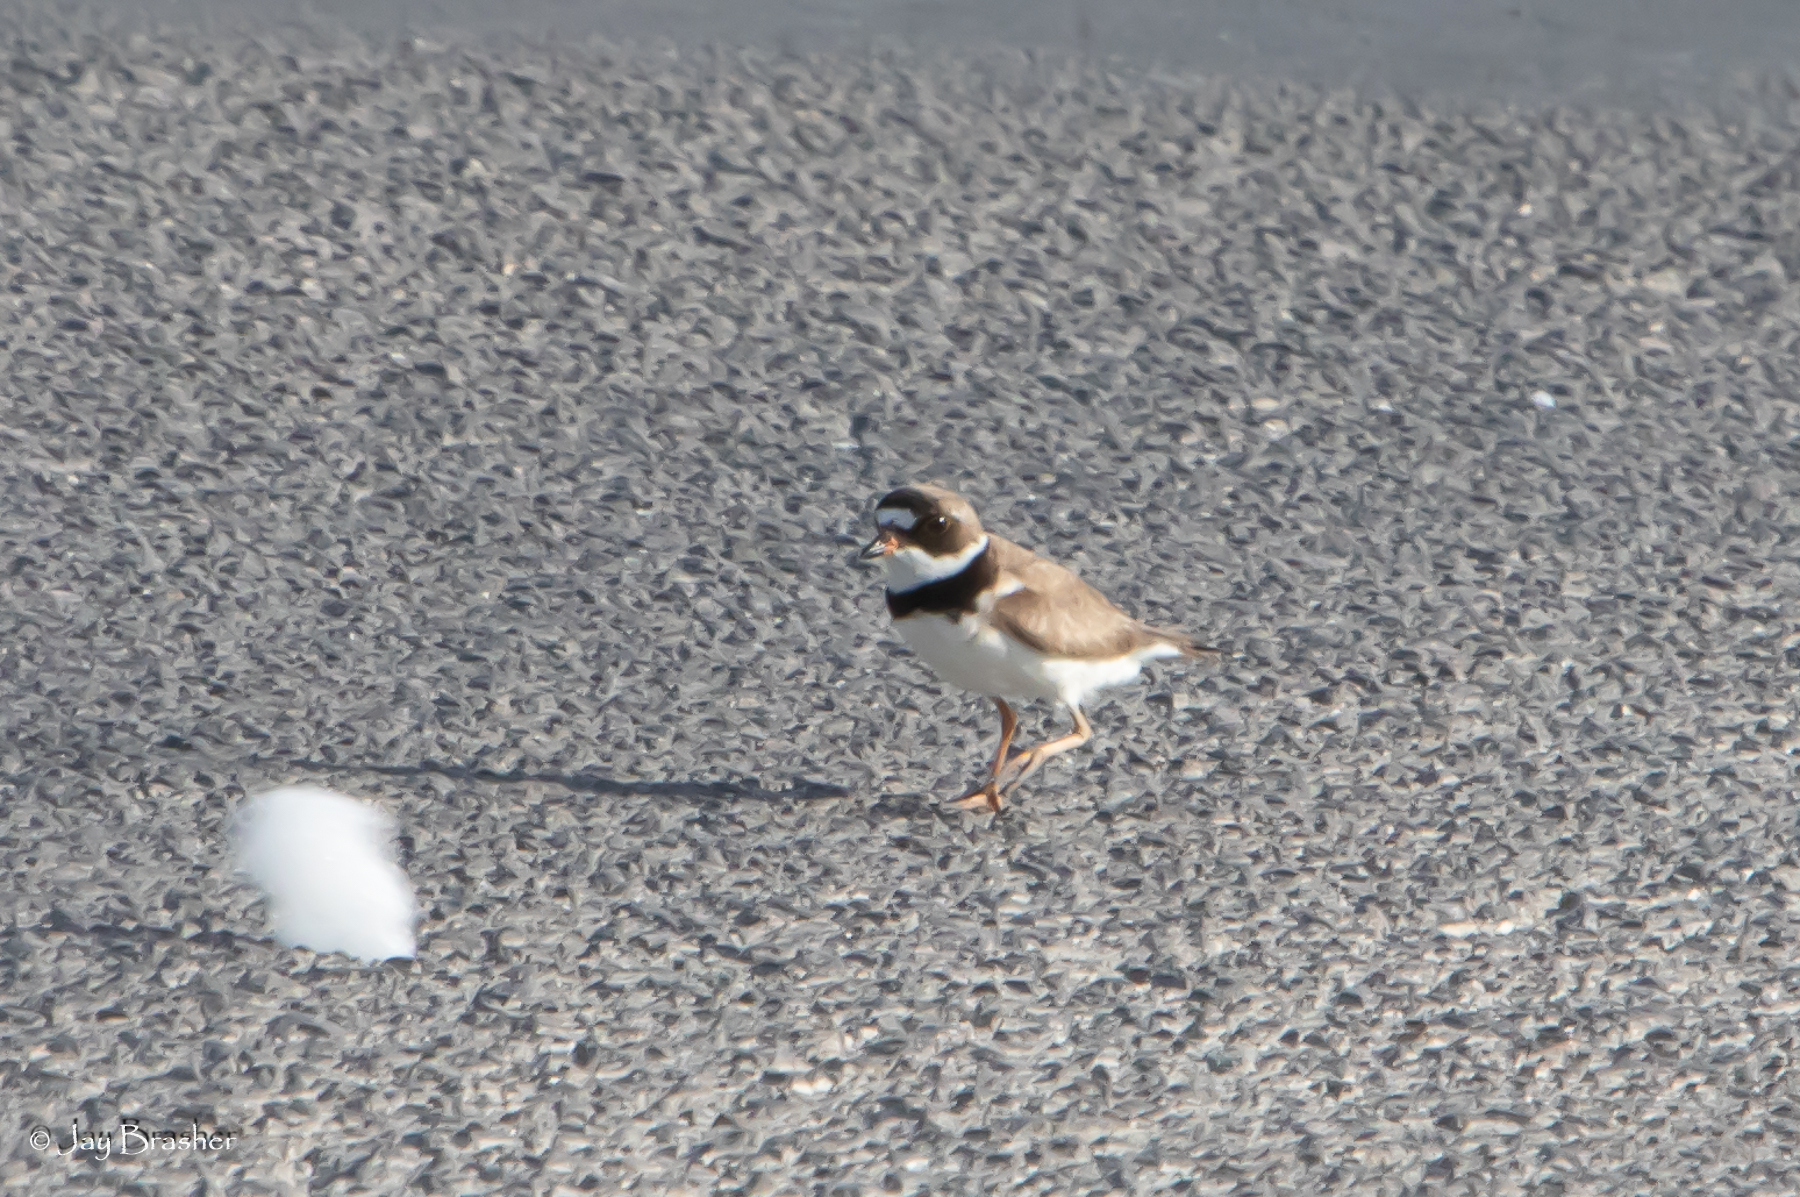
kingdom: Animalia
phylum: Chordata
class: Aves
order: Charadriiformes
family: Charadriidae
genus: Charadrius
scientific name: Charadrius semipalmatus
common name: Semipalmated plover
